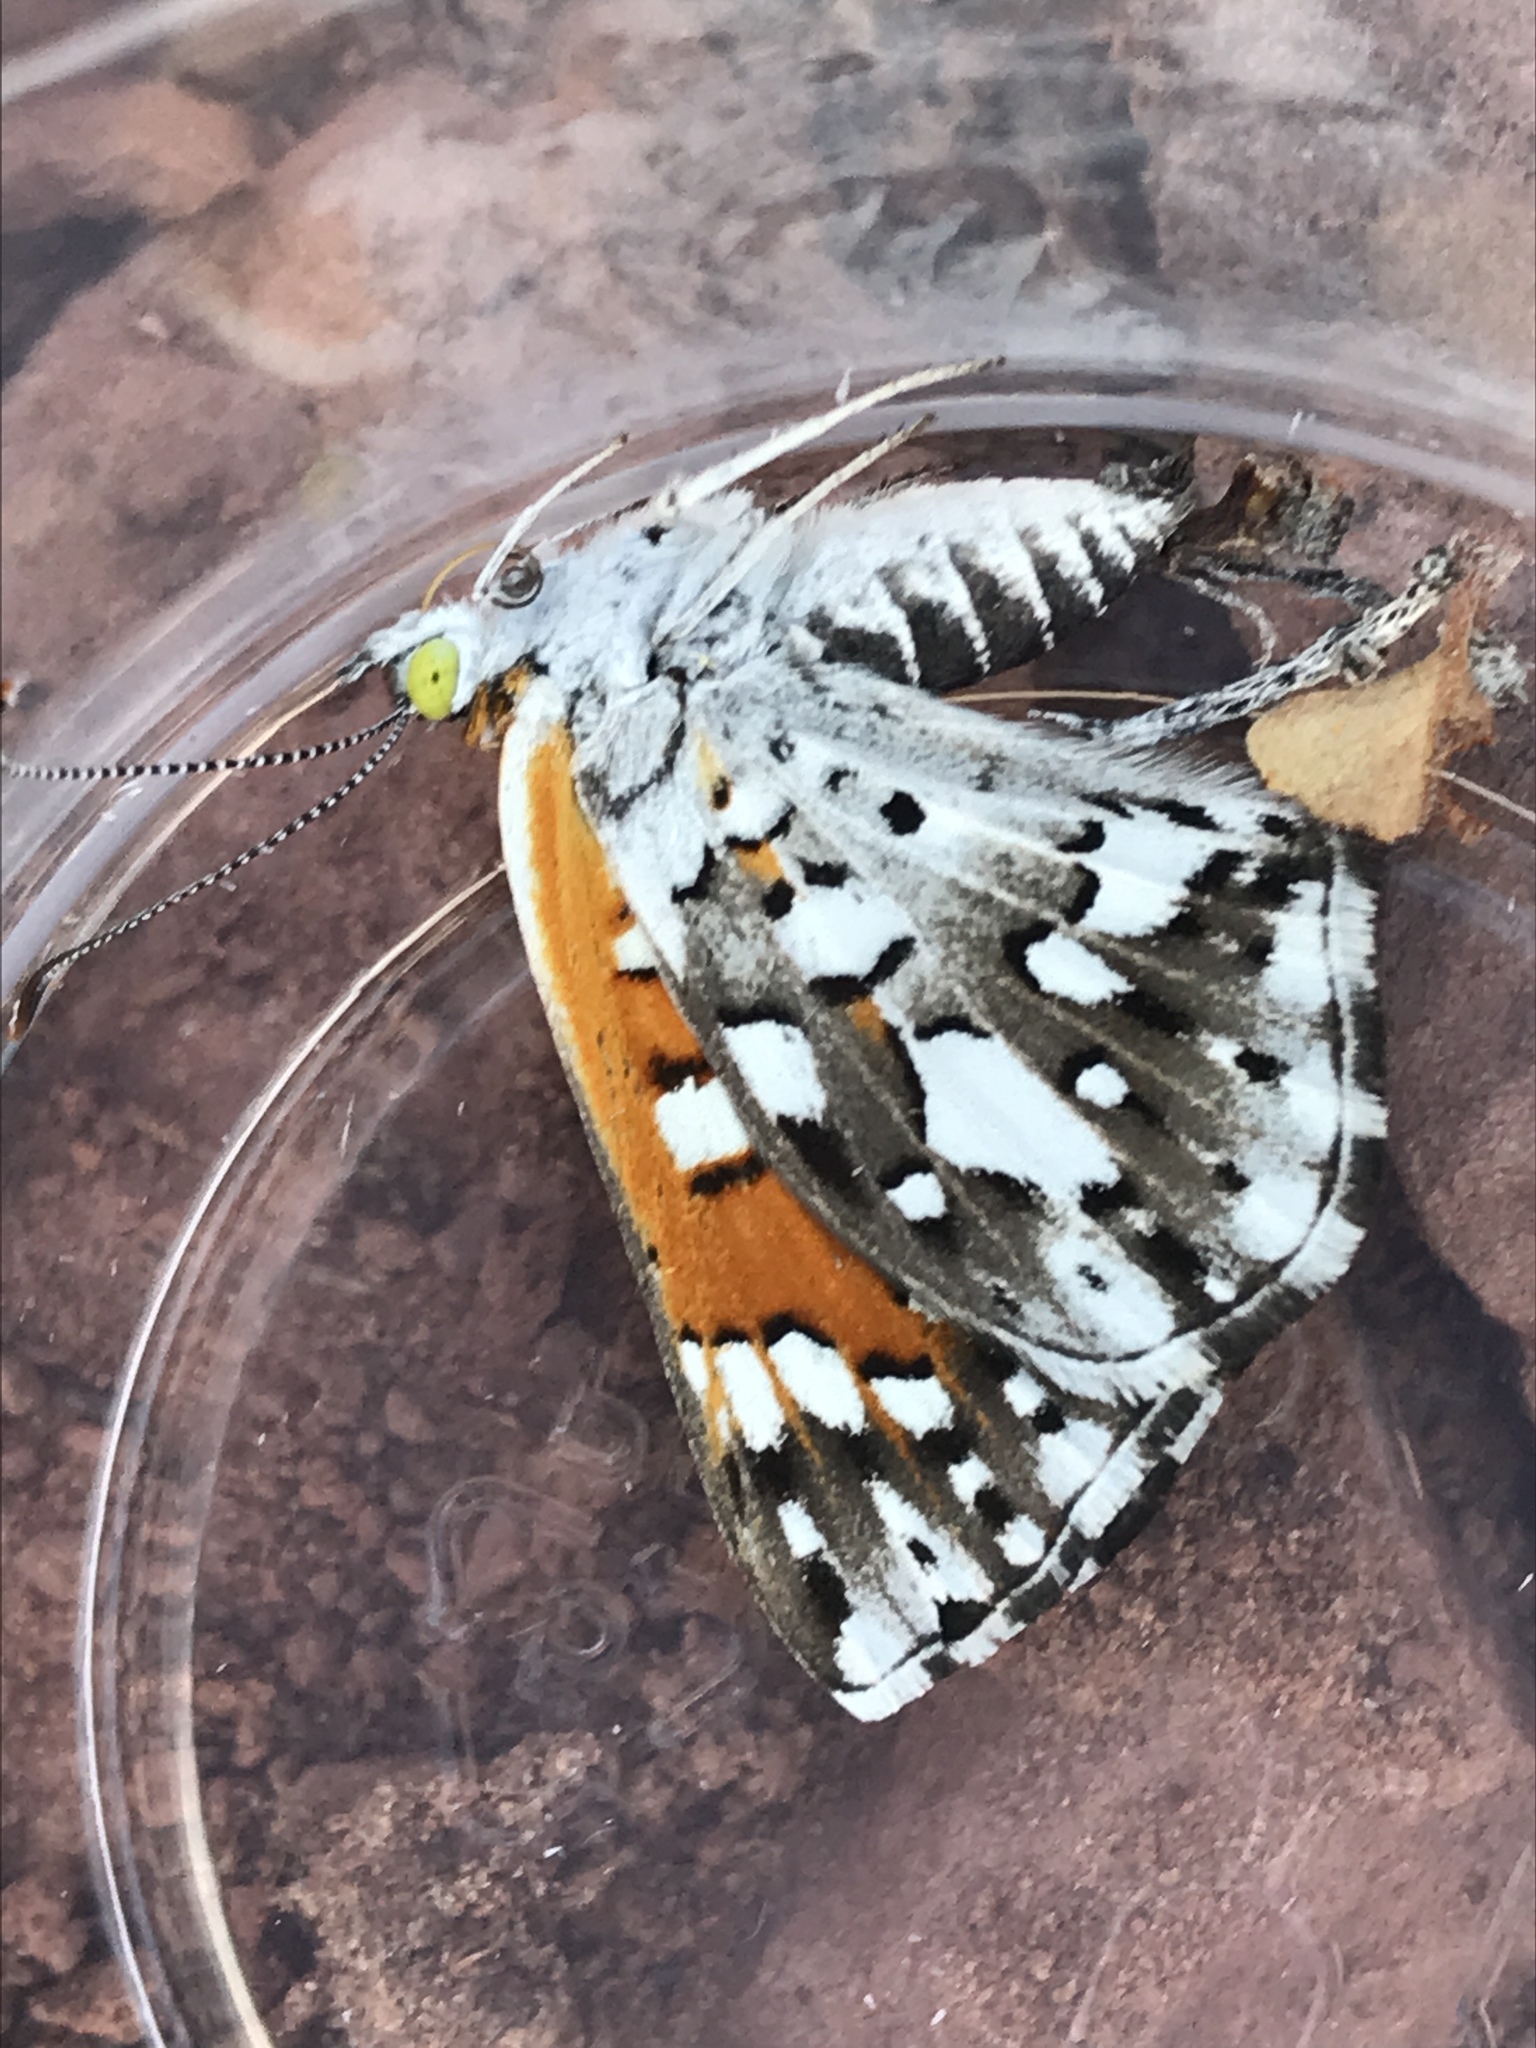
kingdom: Animalia
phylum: Arthropoda
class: Insecta
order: Lepidoptera
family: Riodinidae
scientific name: Riodinidae
